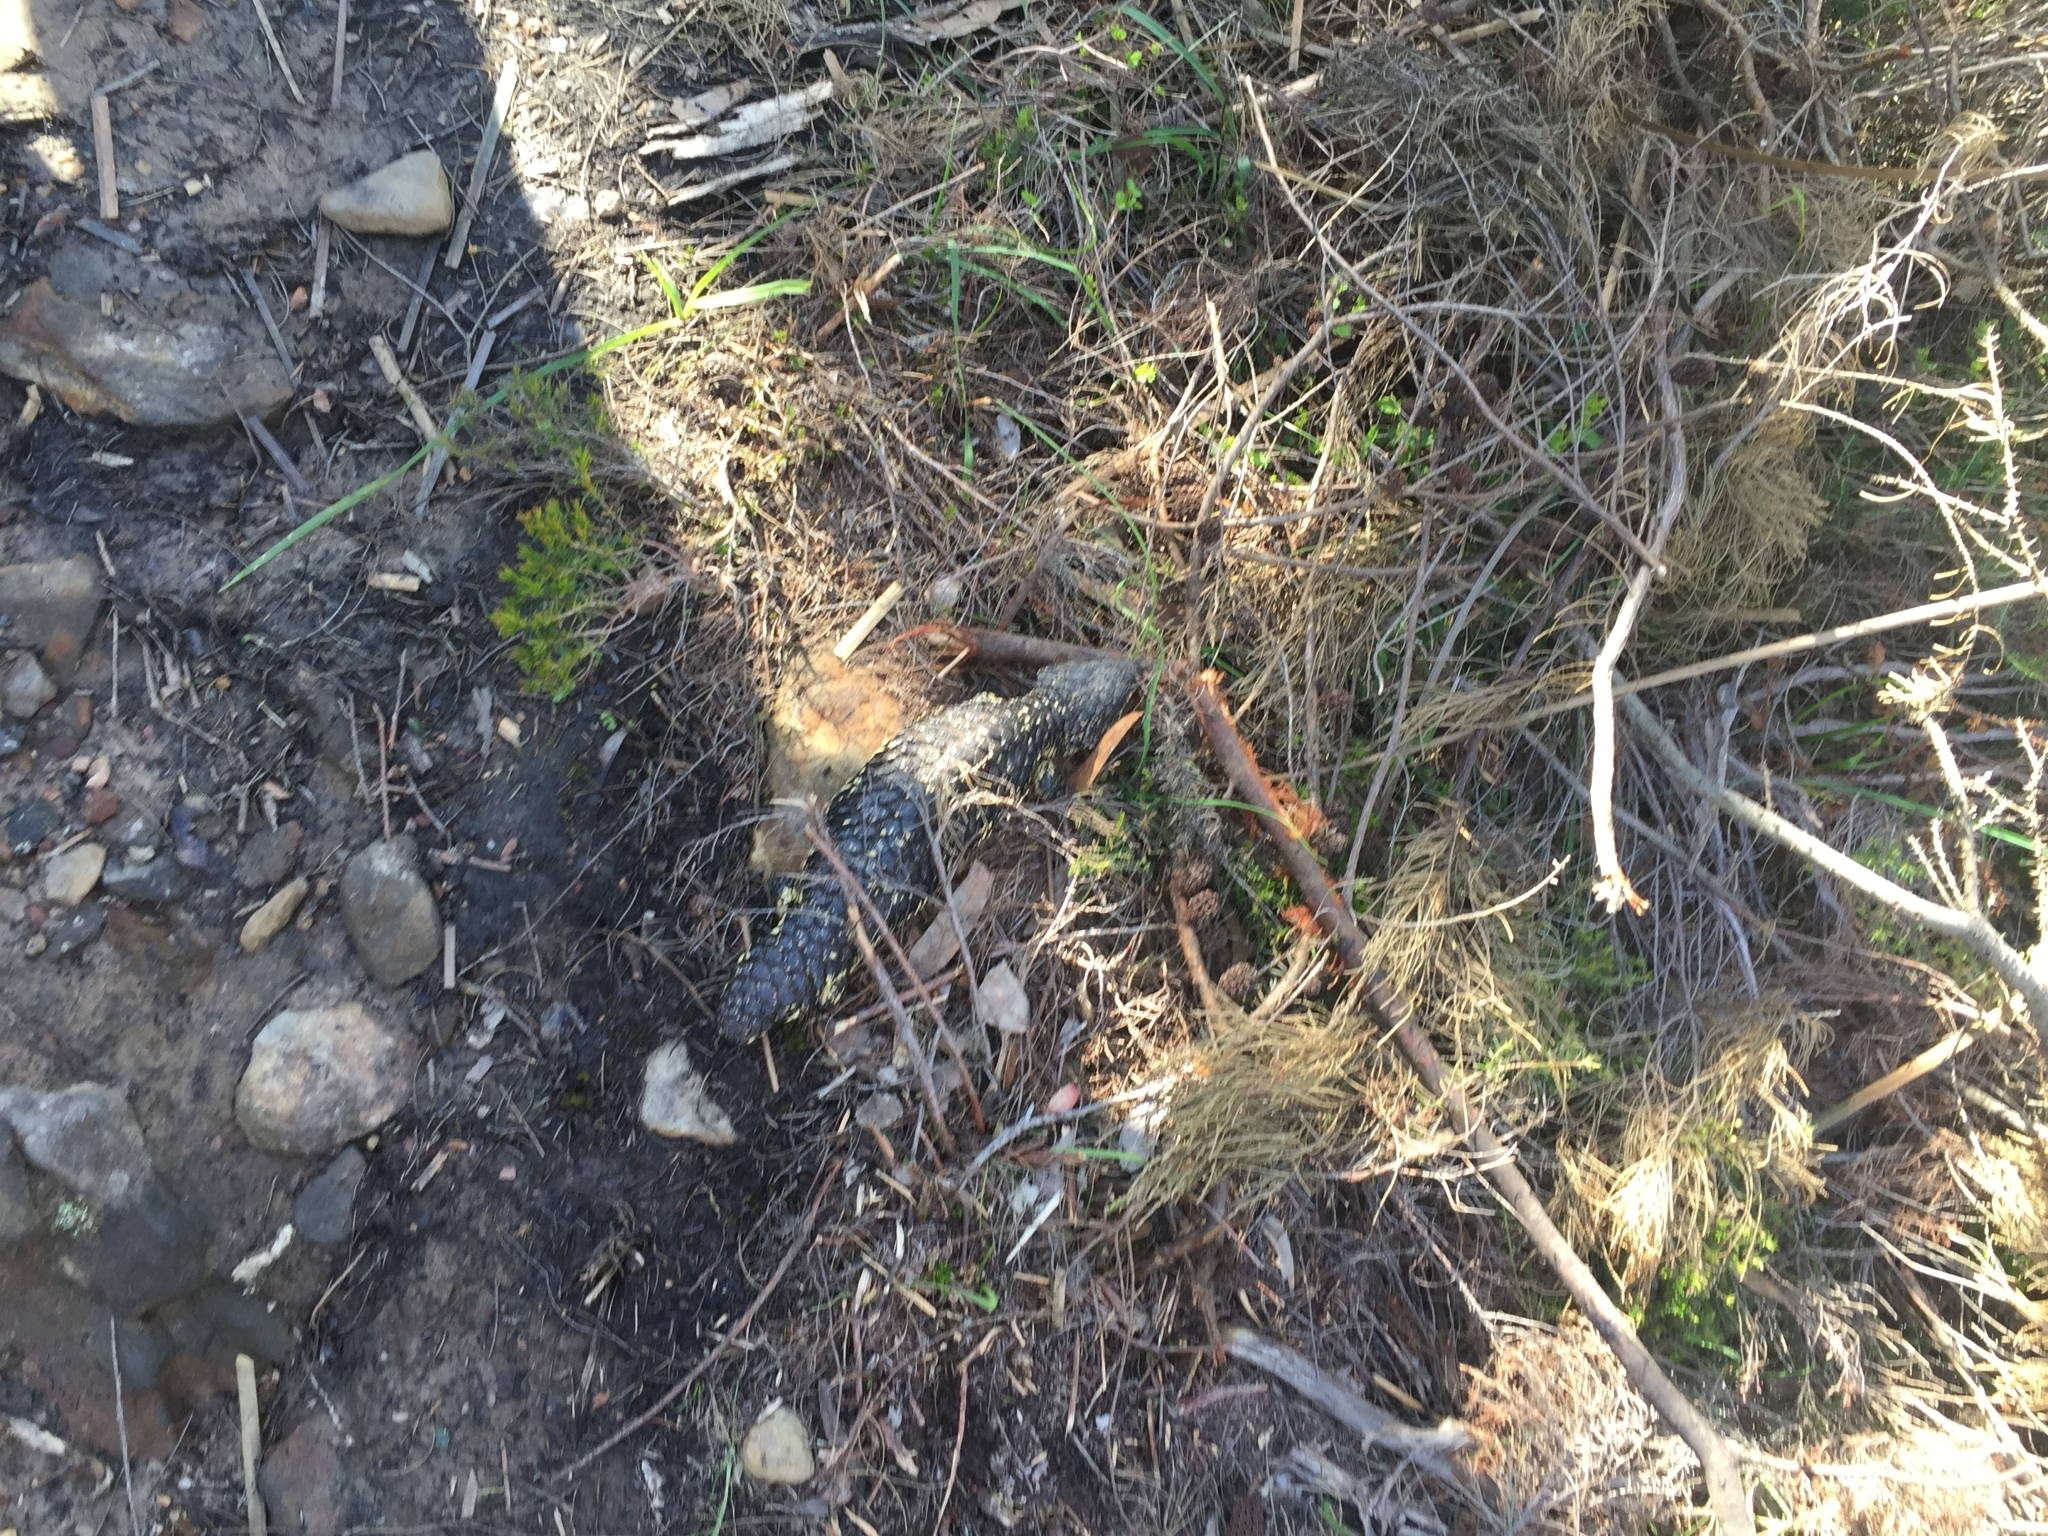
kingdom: Animalia
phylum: Chordata
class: Squamata
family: Scincidae
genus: Tiliqua
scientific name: Tiliqua rugosa
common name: Pinecone lizard
